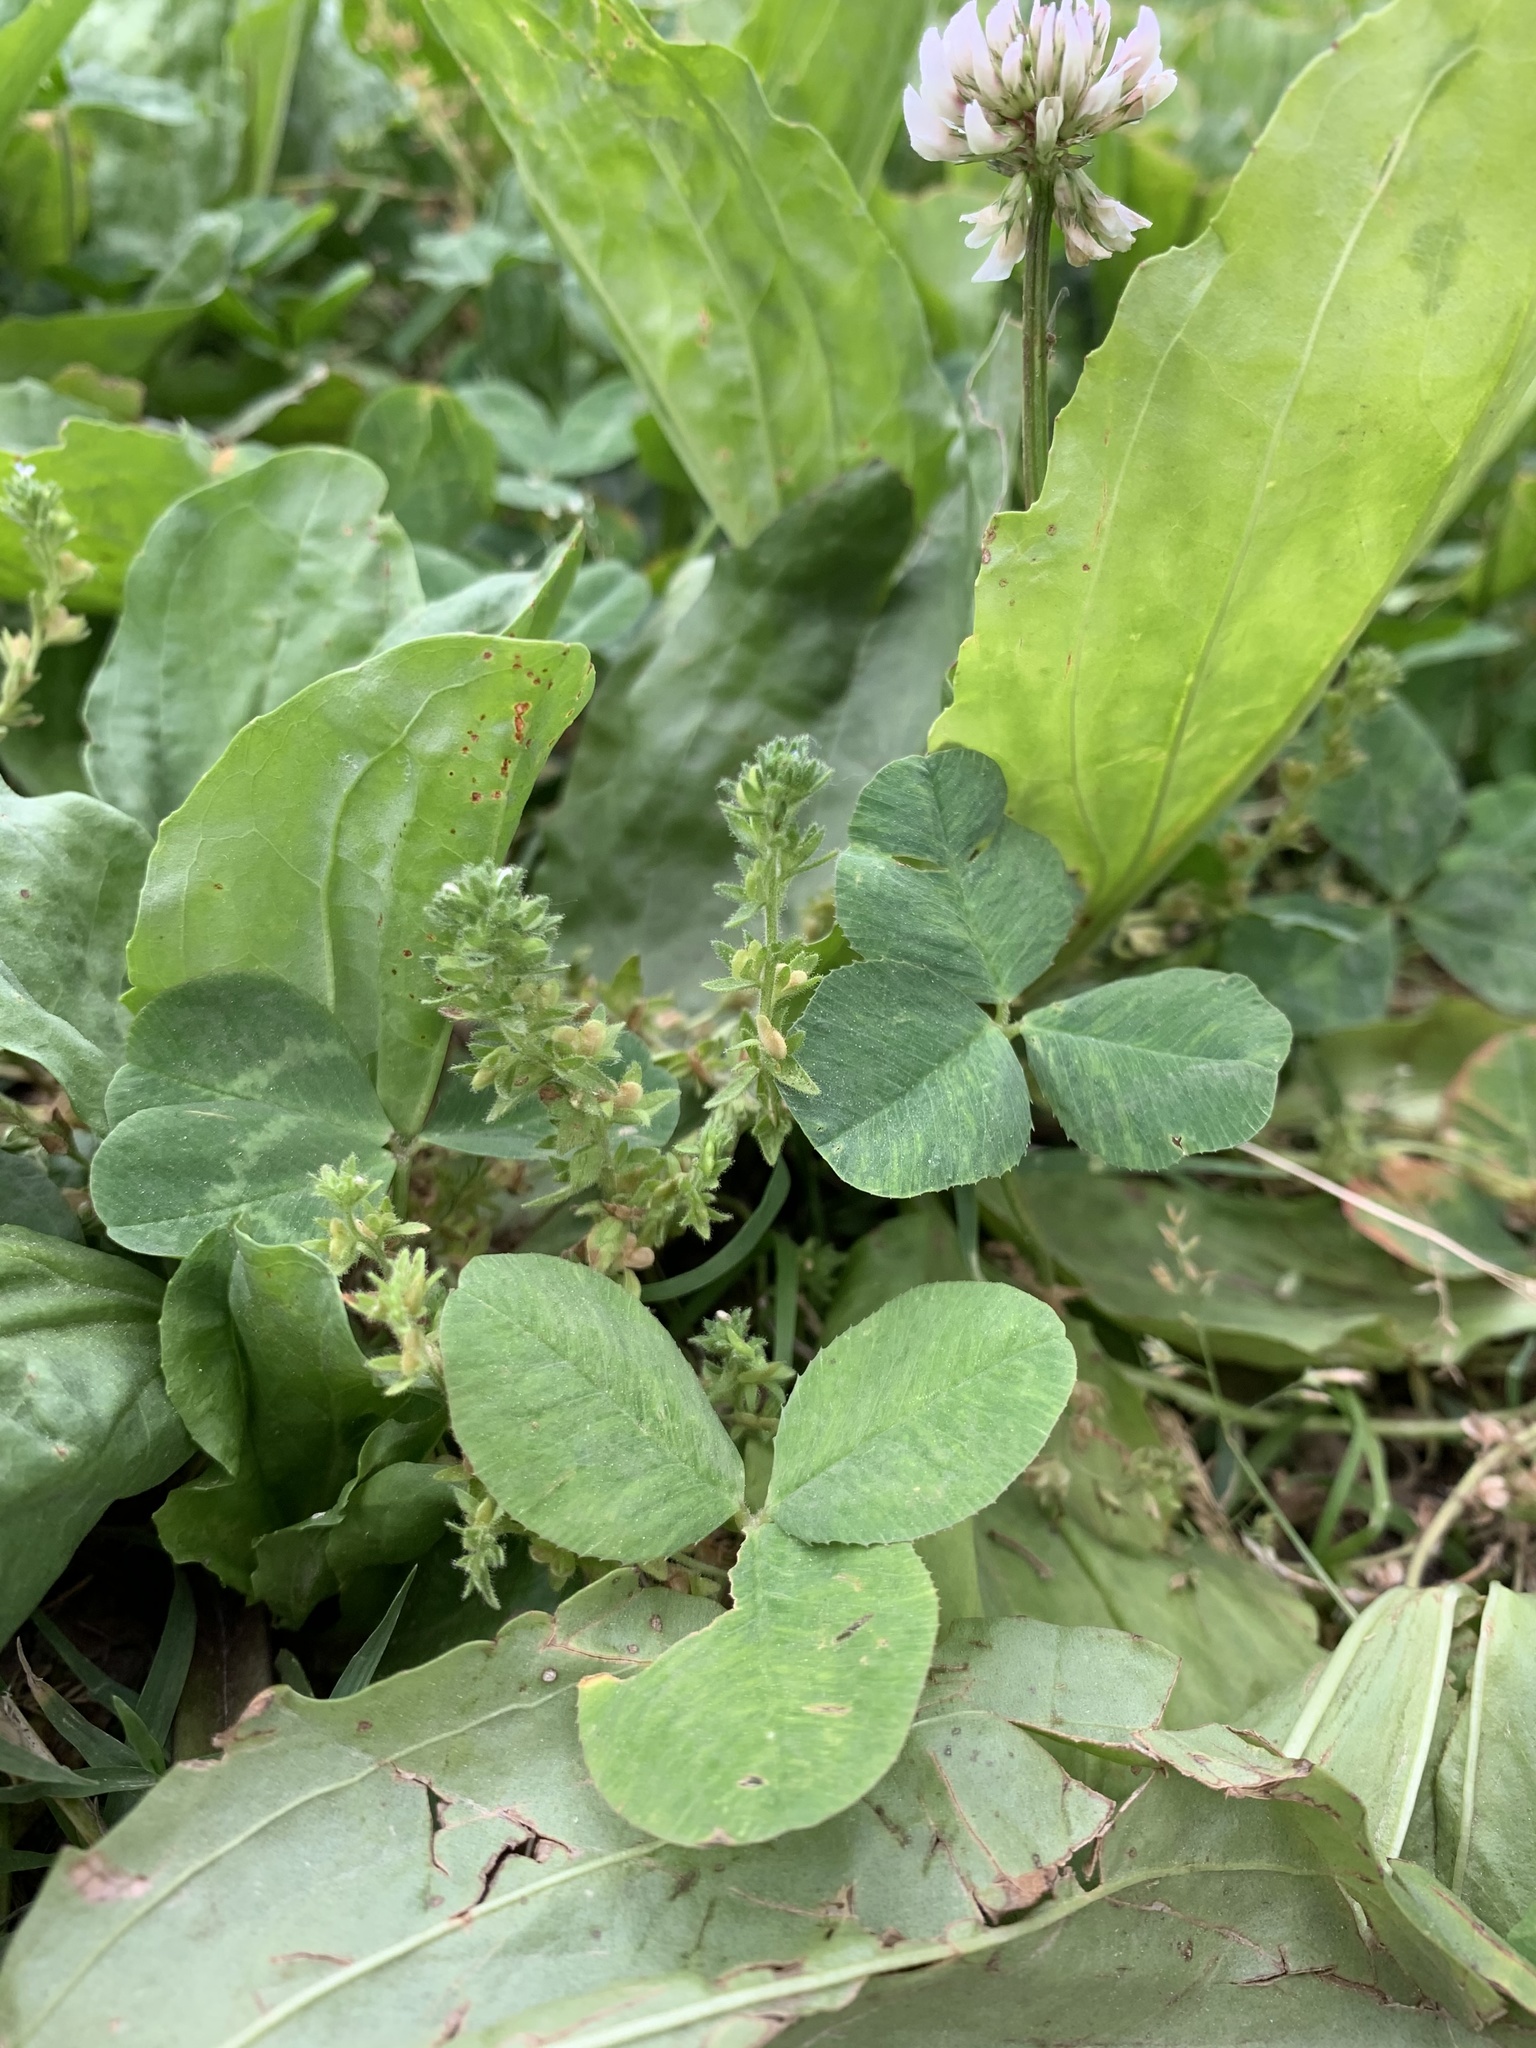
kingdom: Plantae
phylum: Tracheophyta
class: Magnoliopsida
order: Lamiales
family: Plantaginaceae
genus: Veronica
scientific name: Veronica arvensis
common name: Corn speedwell
